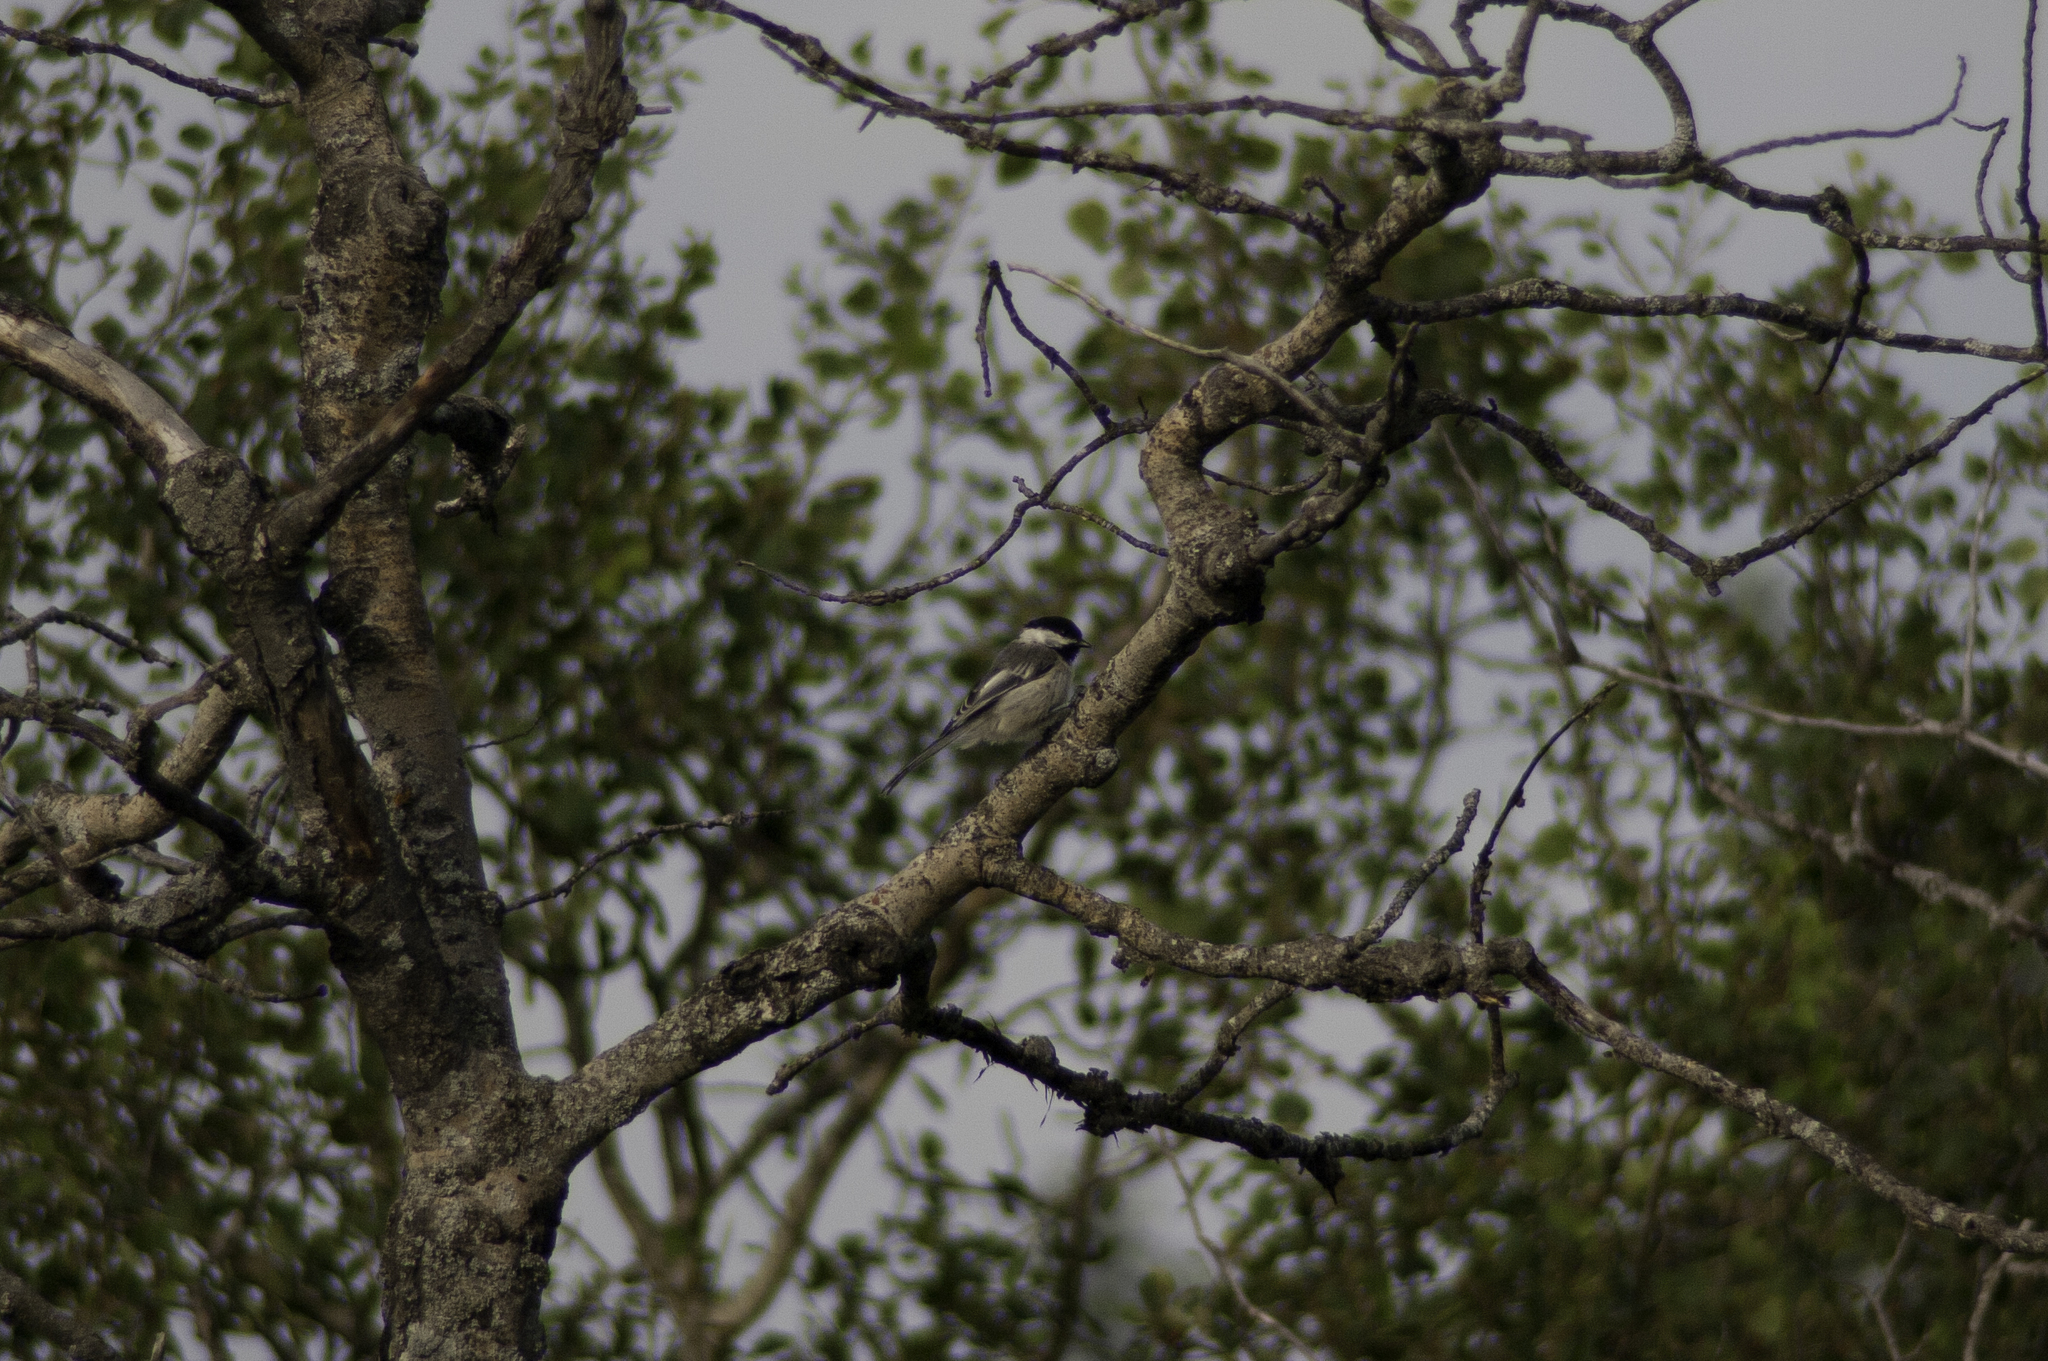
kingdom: Animalia
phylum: Chordata
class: Aves
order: Passeriformes
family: Paridae
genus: Poecile
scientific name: Poecile atricapillus
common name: Black-capped chickadee
